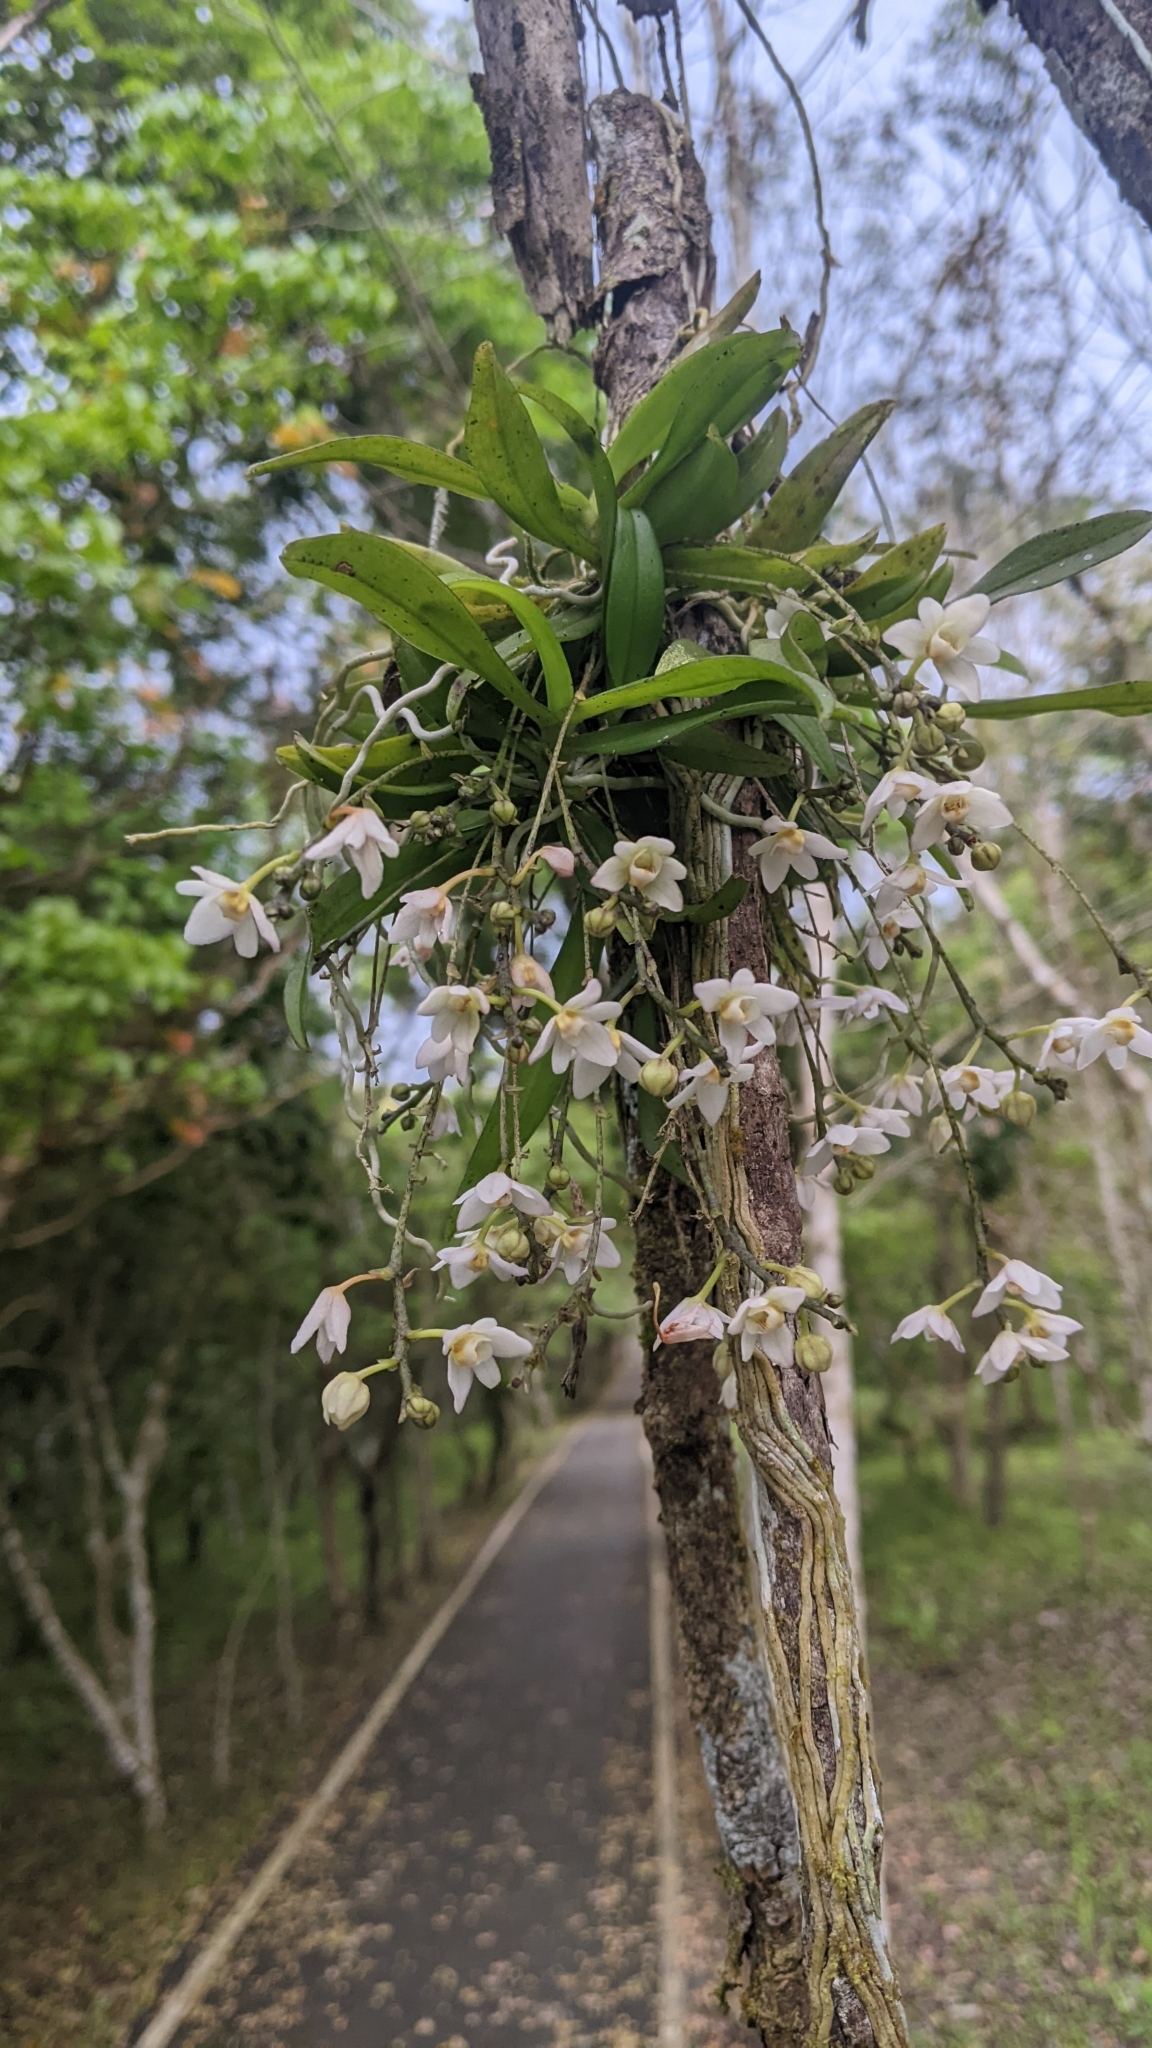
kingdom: Plantae
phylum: Tracheophyta
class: Liliopsida
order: Asparagales
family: Orchidaceae
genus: Thrixspermum
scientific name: Thrixspermum saruwatarii
